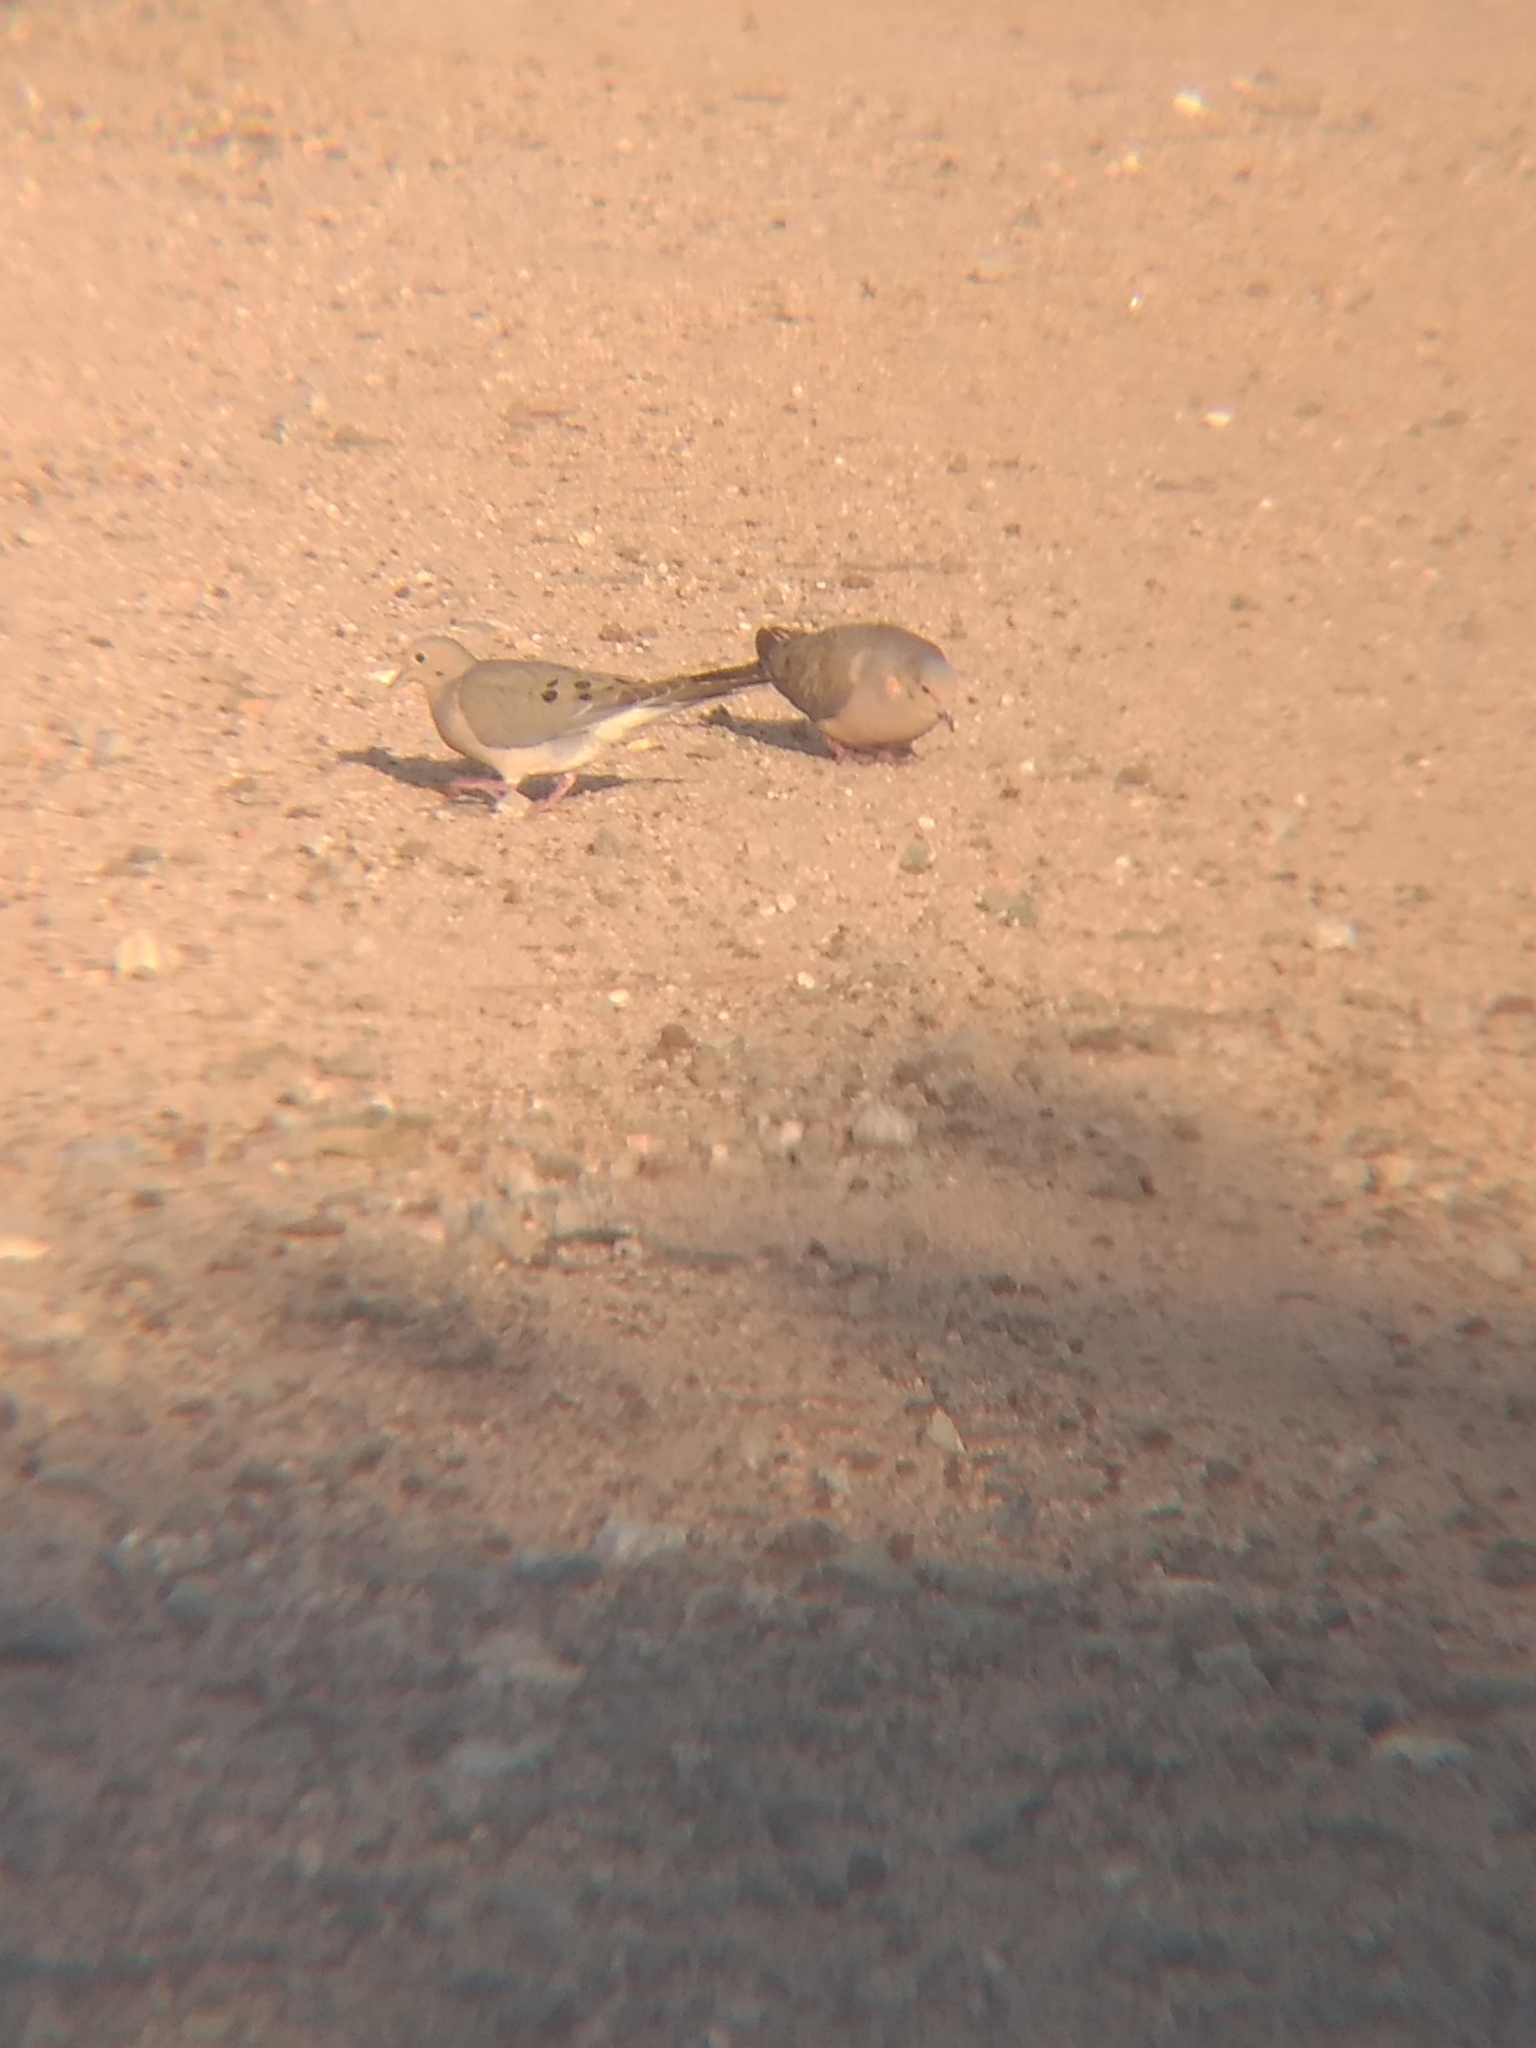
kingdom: Animalia
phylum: Chordata
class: Aves
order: Columbiformes
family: Columbidae
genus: Zenaida
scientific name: Zenaida macroura
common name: Mourning dove
